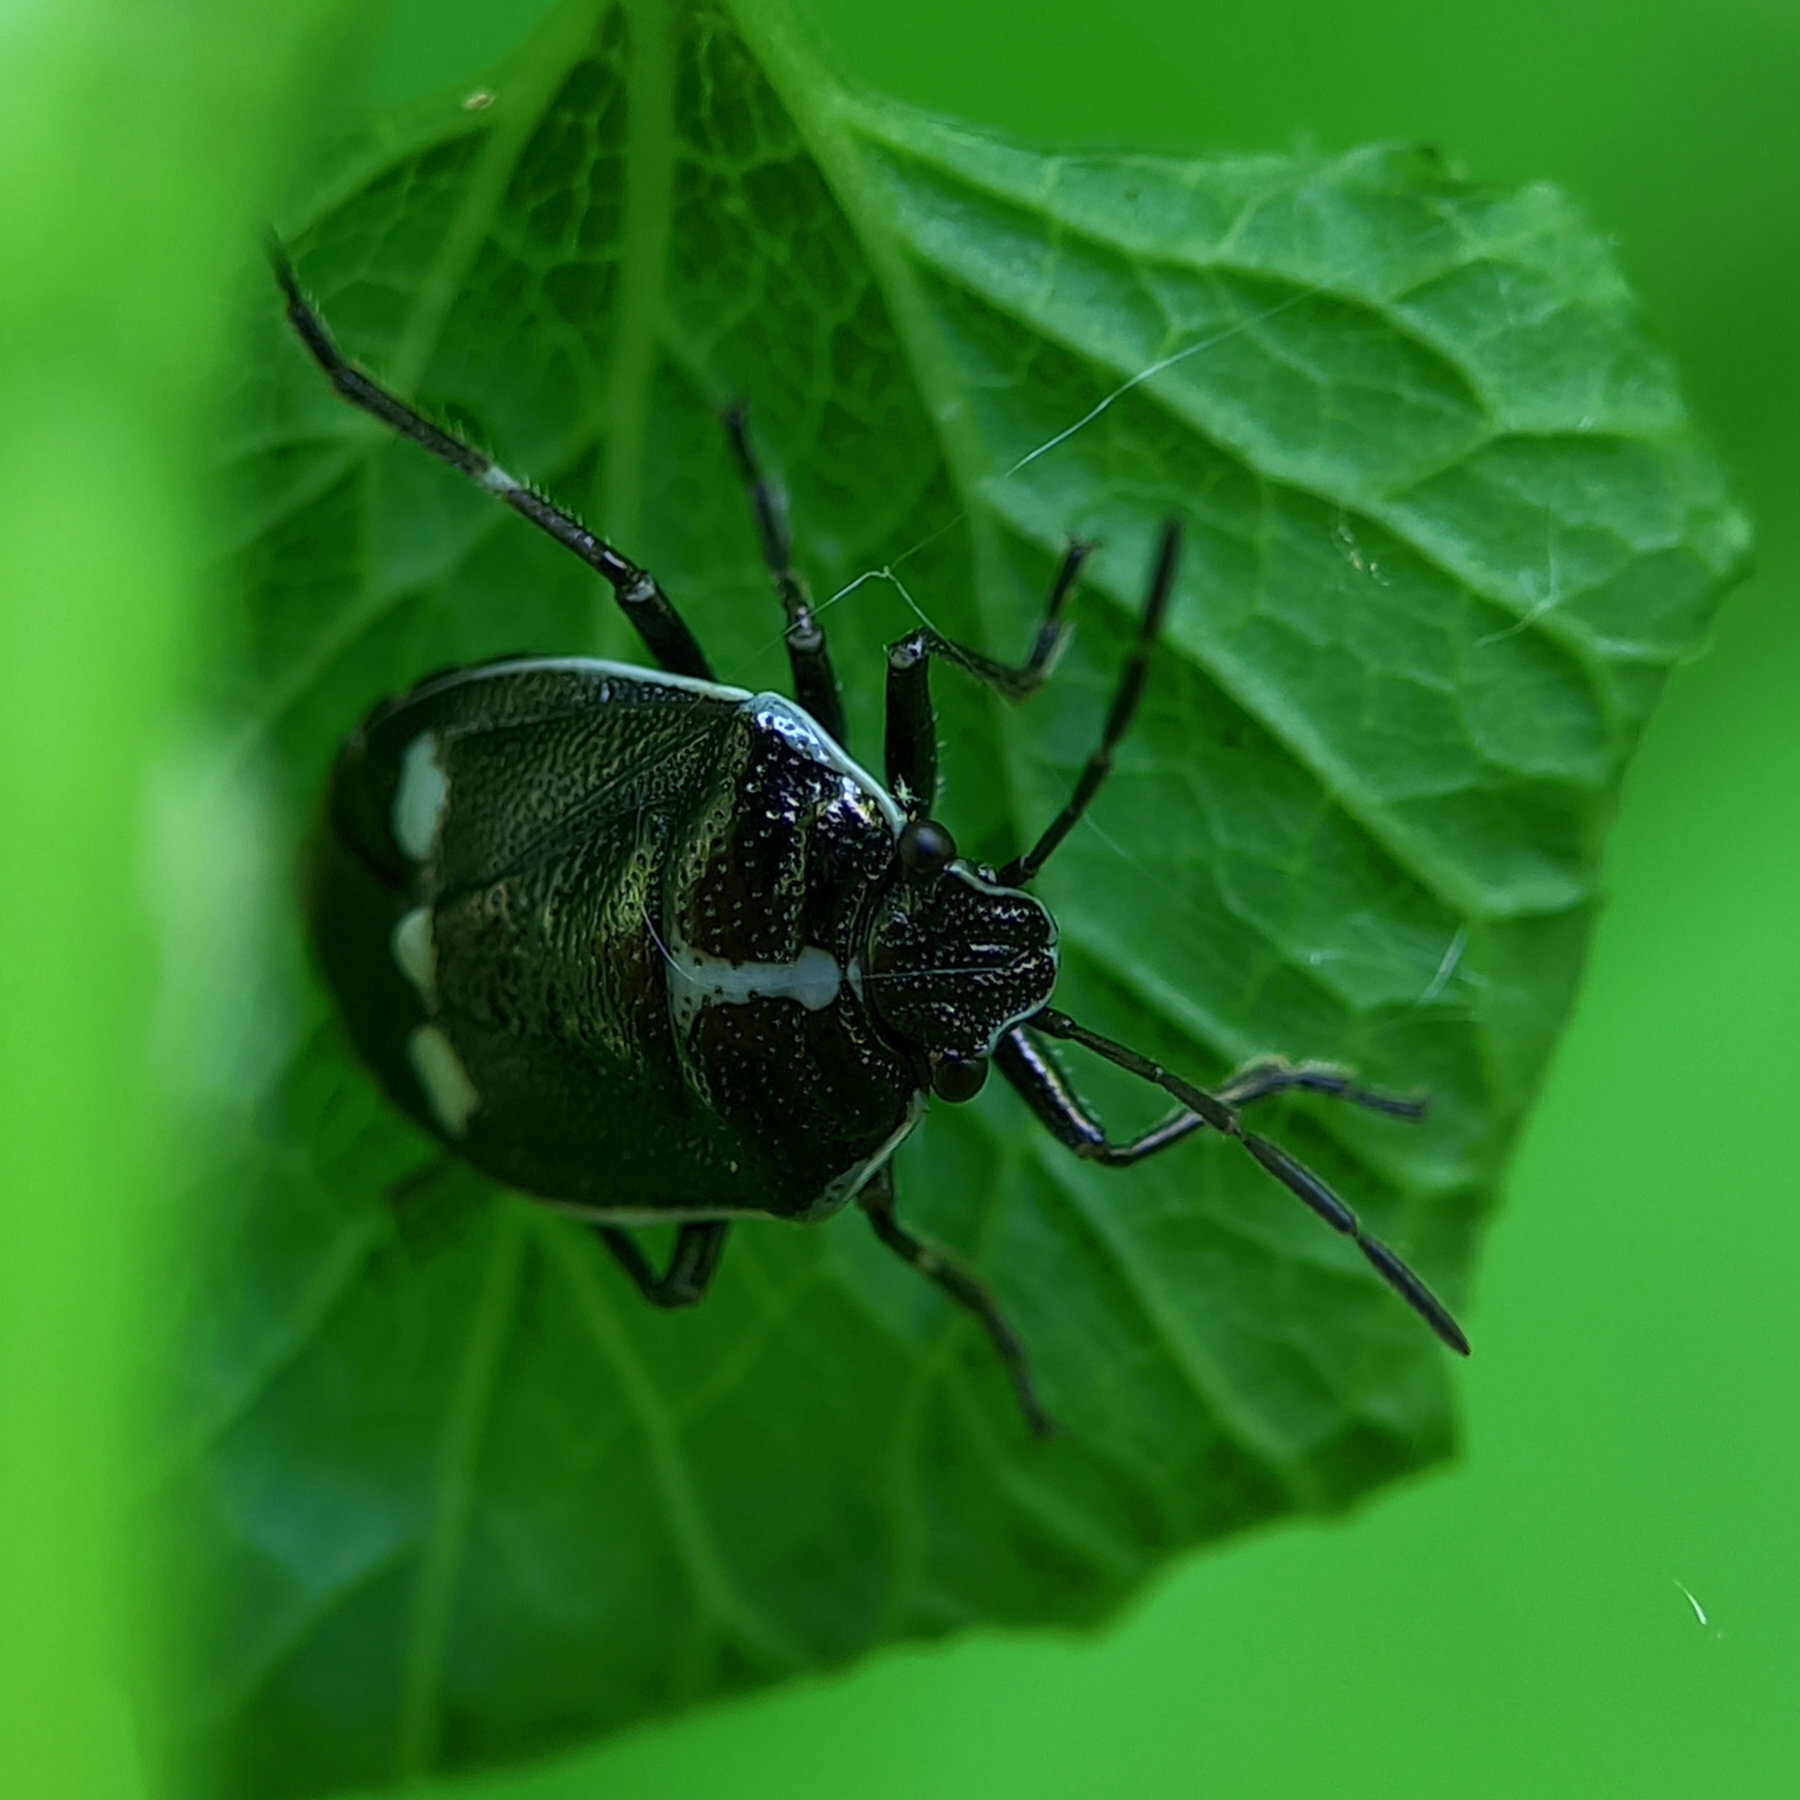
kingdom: Animalia
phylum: Arthropoda
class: Insecta
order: Hemiptera
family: Pentatomidae
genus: Eurydema
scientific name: Eurydema oleracea
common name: Cabbage bug
